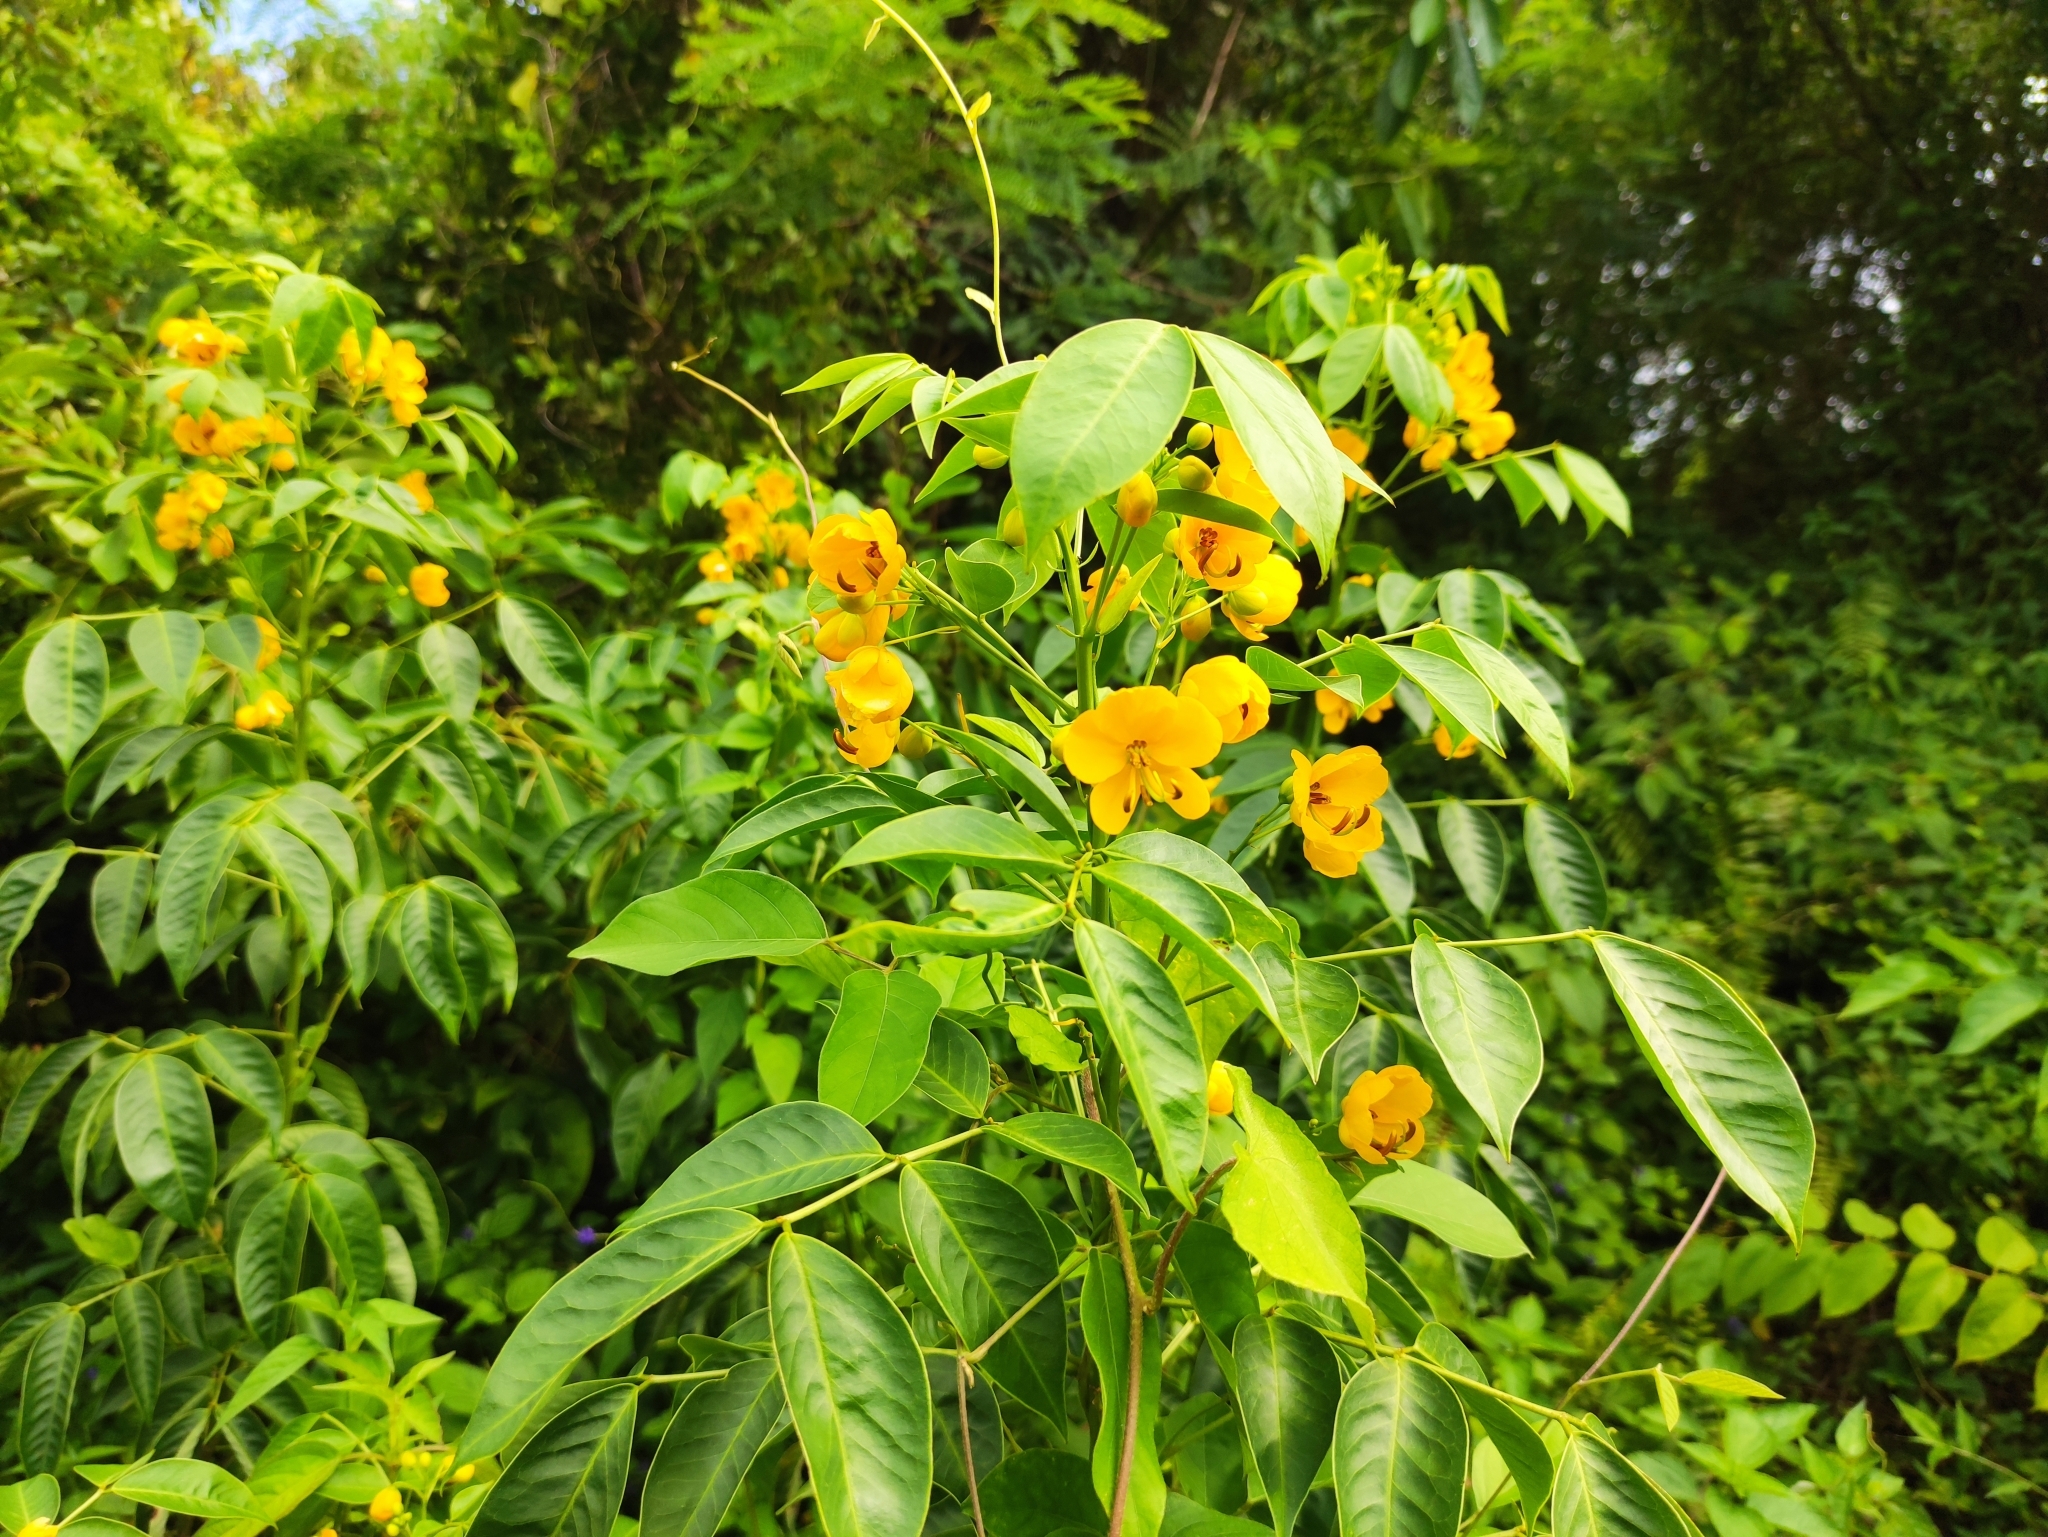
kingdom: Plantae
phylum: Tracheophyta
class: Magnoliopsida
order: Fabales
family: Fabaceae
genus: Senna
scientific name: Senna septemtrionalis
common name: Arsenic bush
